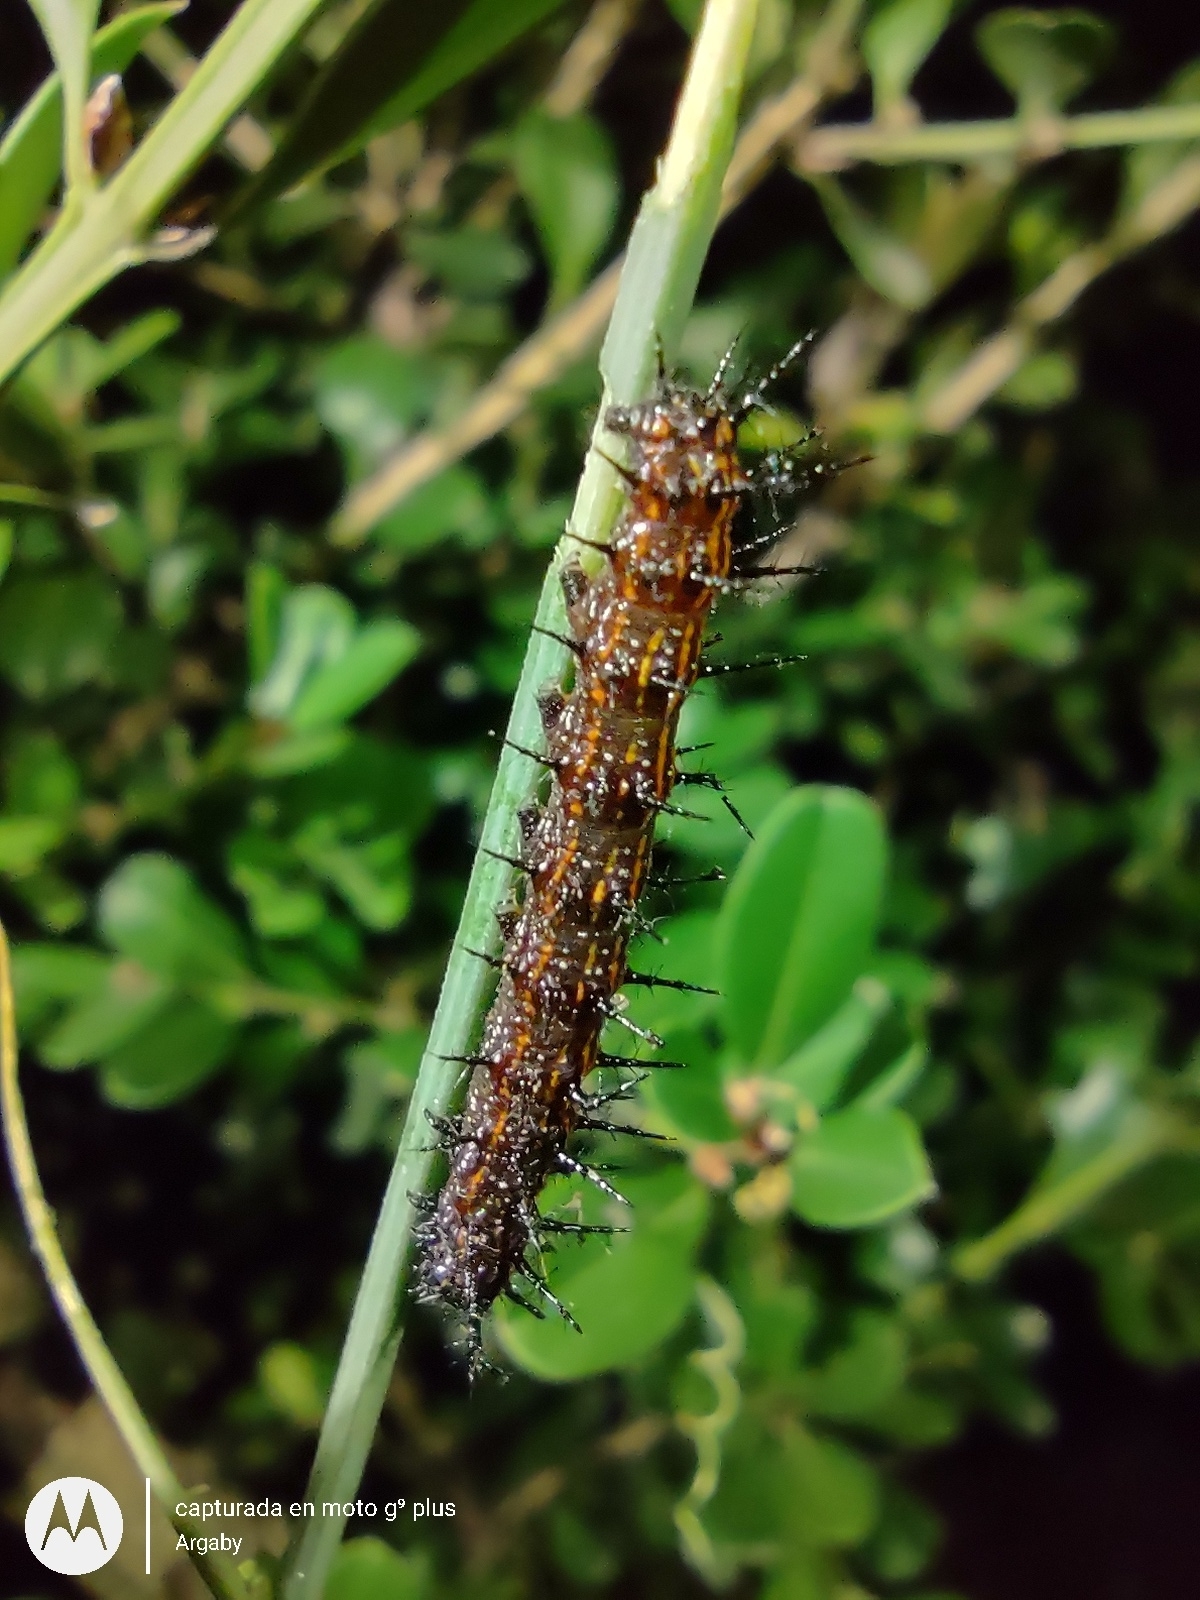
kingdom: Animalia
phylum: Arthropoda
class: Insecta
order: Lepidoptera
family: Nymphalidae
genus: Dione
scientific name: Dione vanillae
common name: Gulf fritillary
